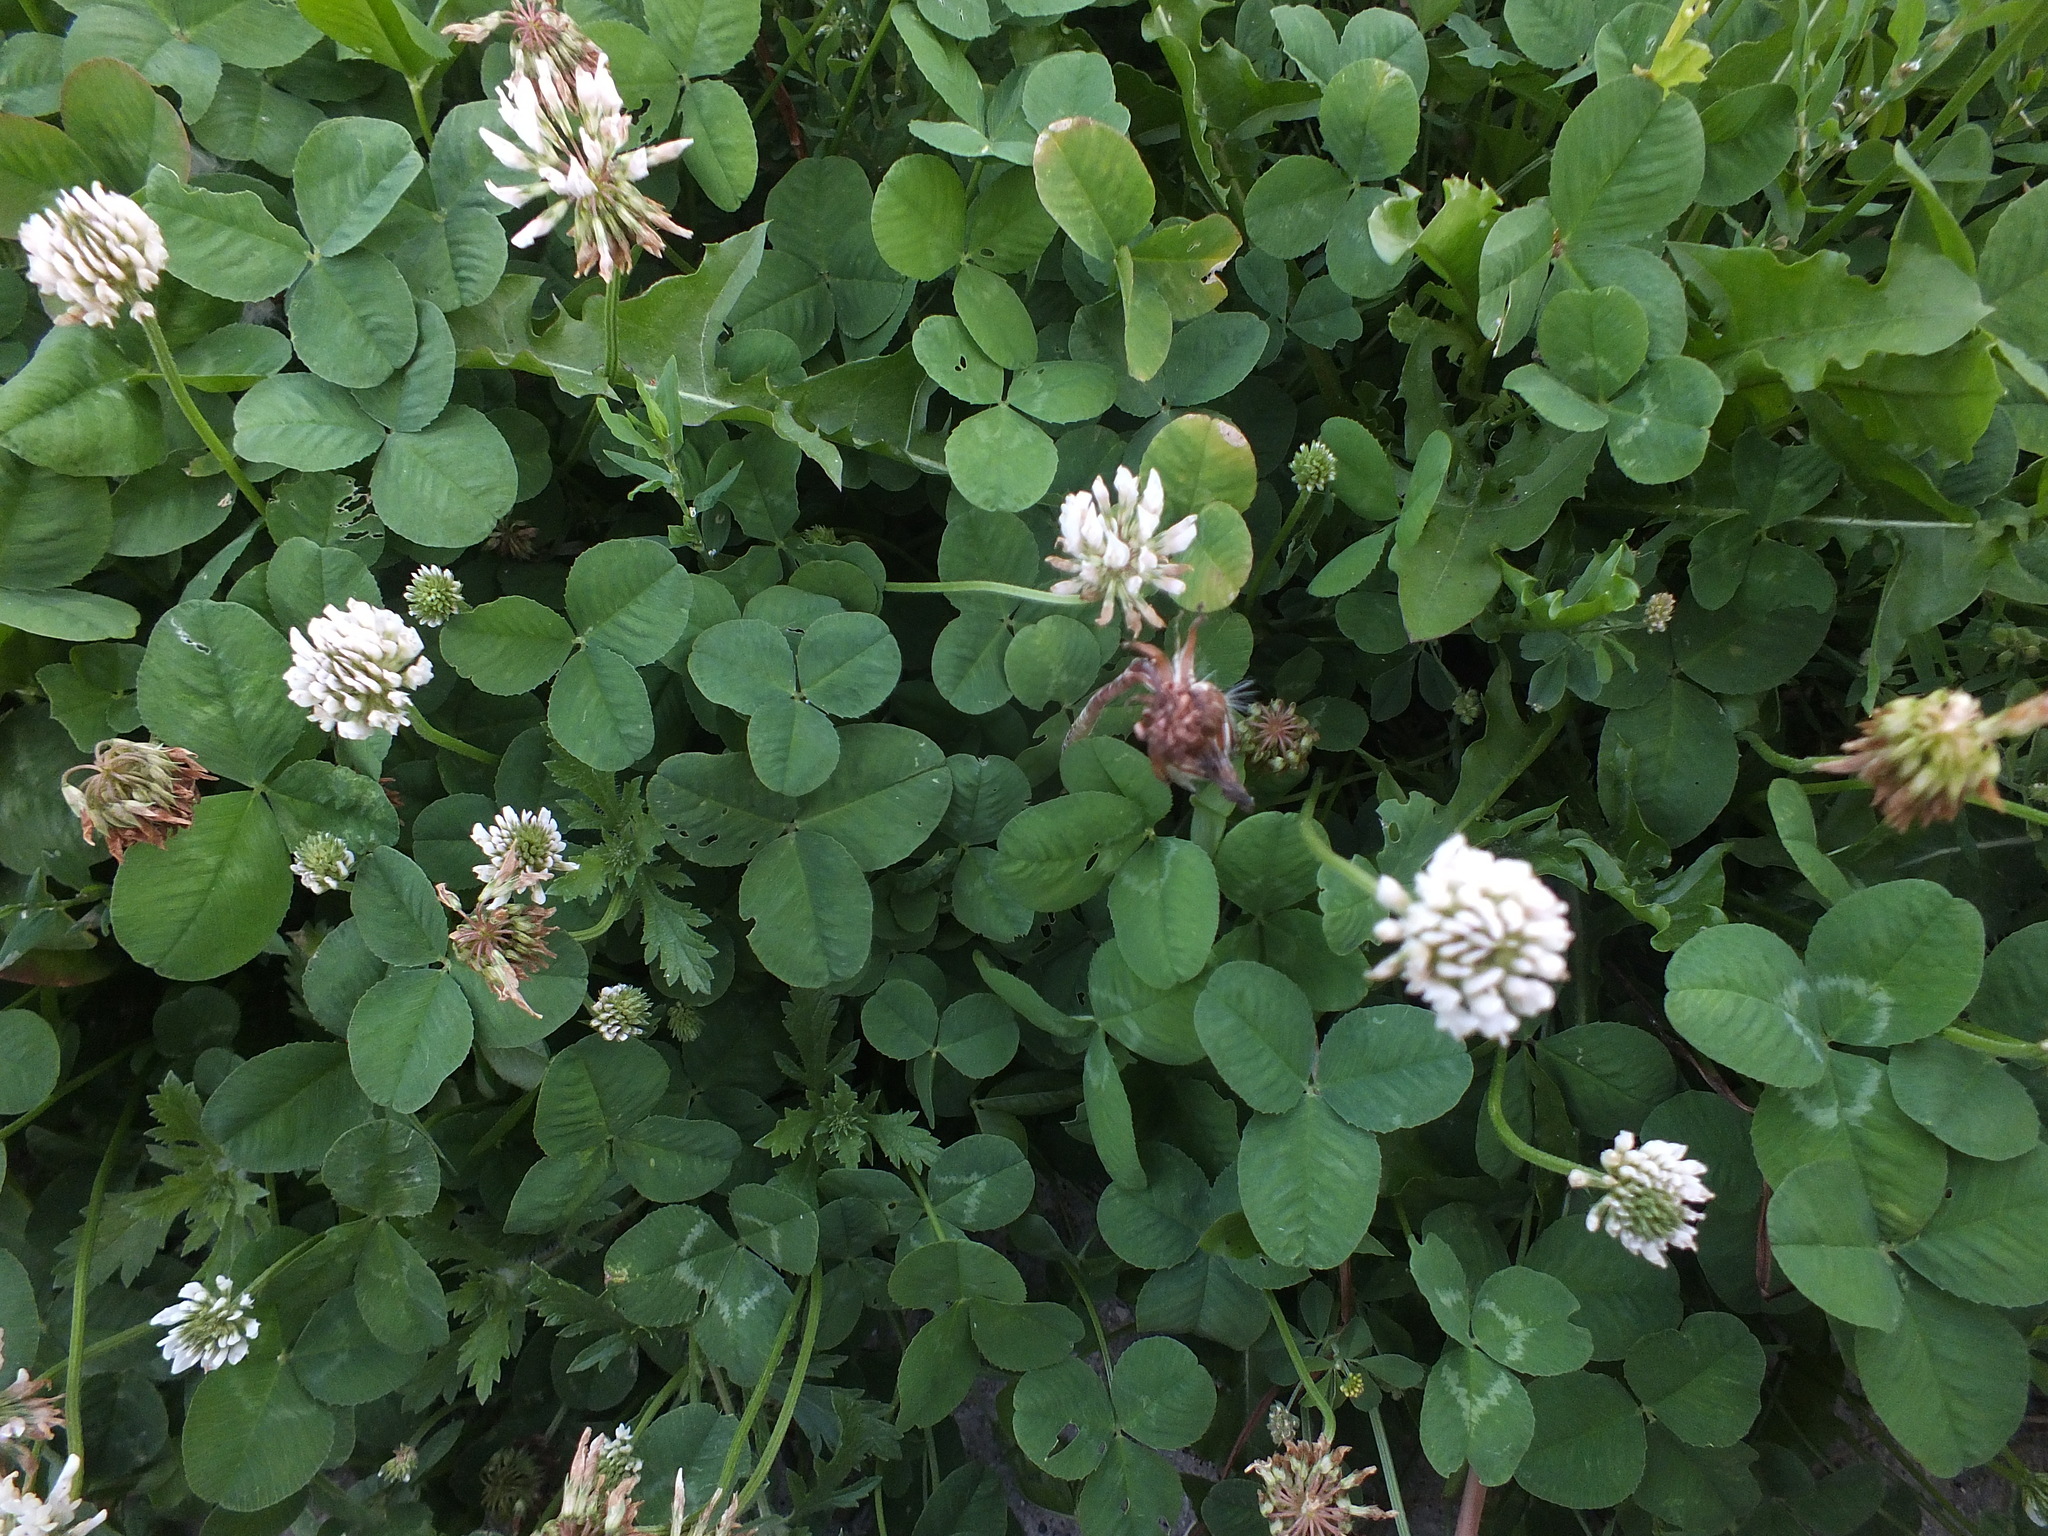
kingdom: Plantae
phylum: Tracheophyta
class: Magnoliopsida
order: Fabales
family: Fabaceae
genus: Trifolium
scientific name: Trifolium repens
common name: White clover
